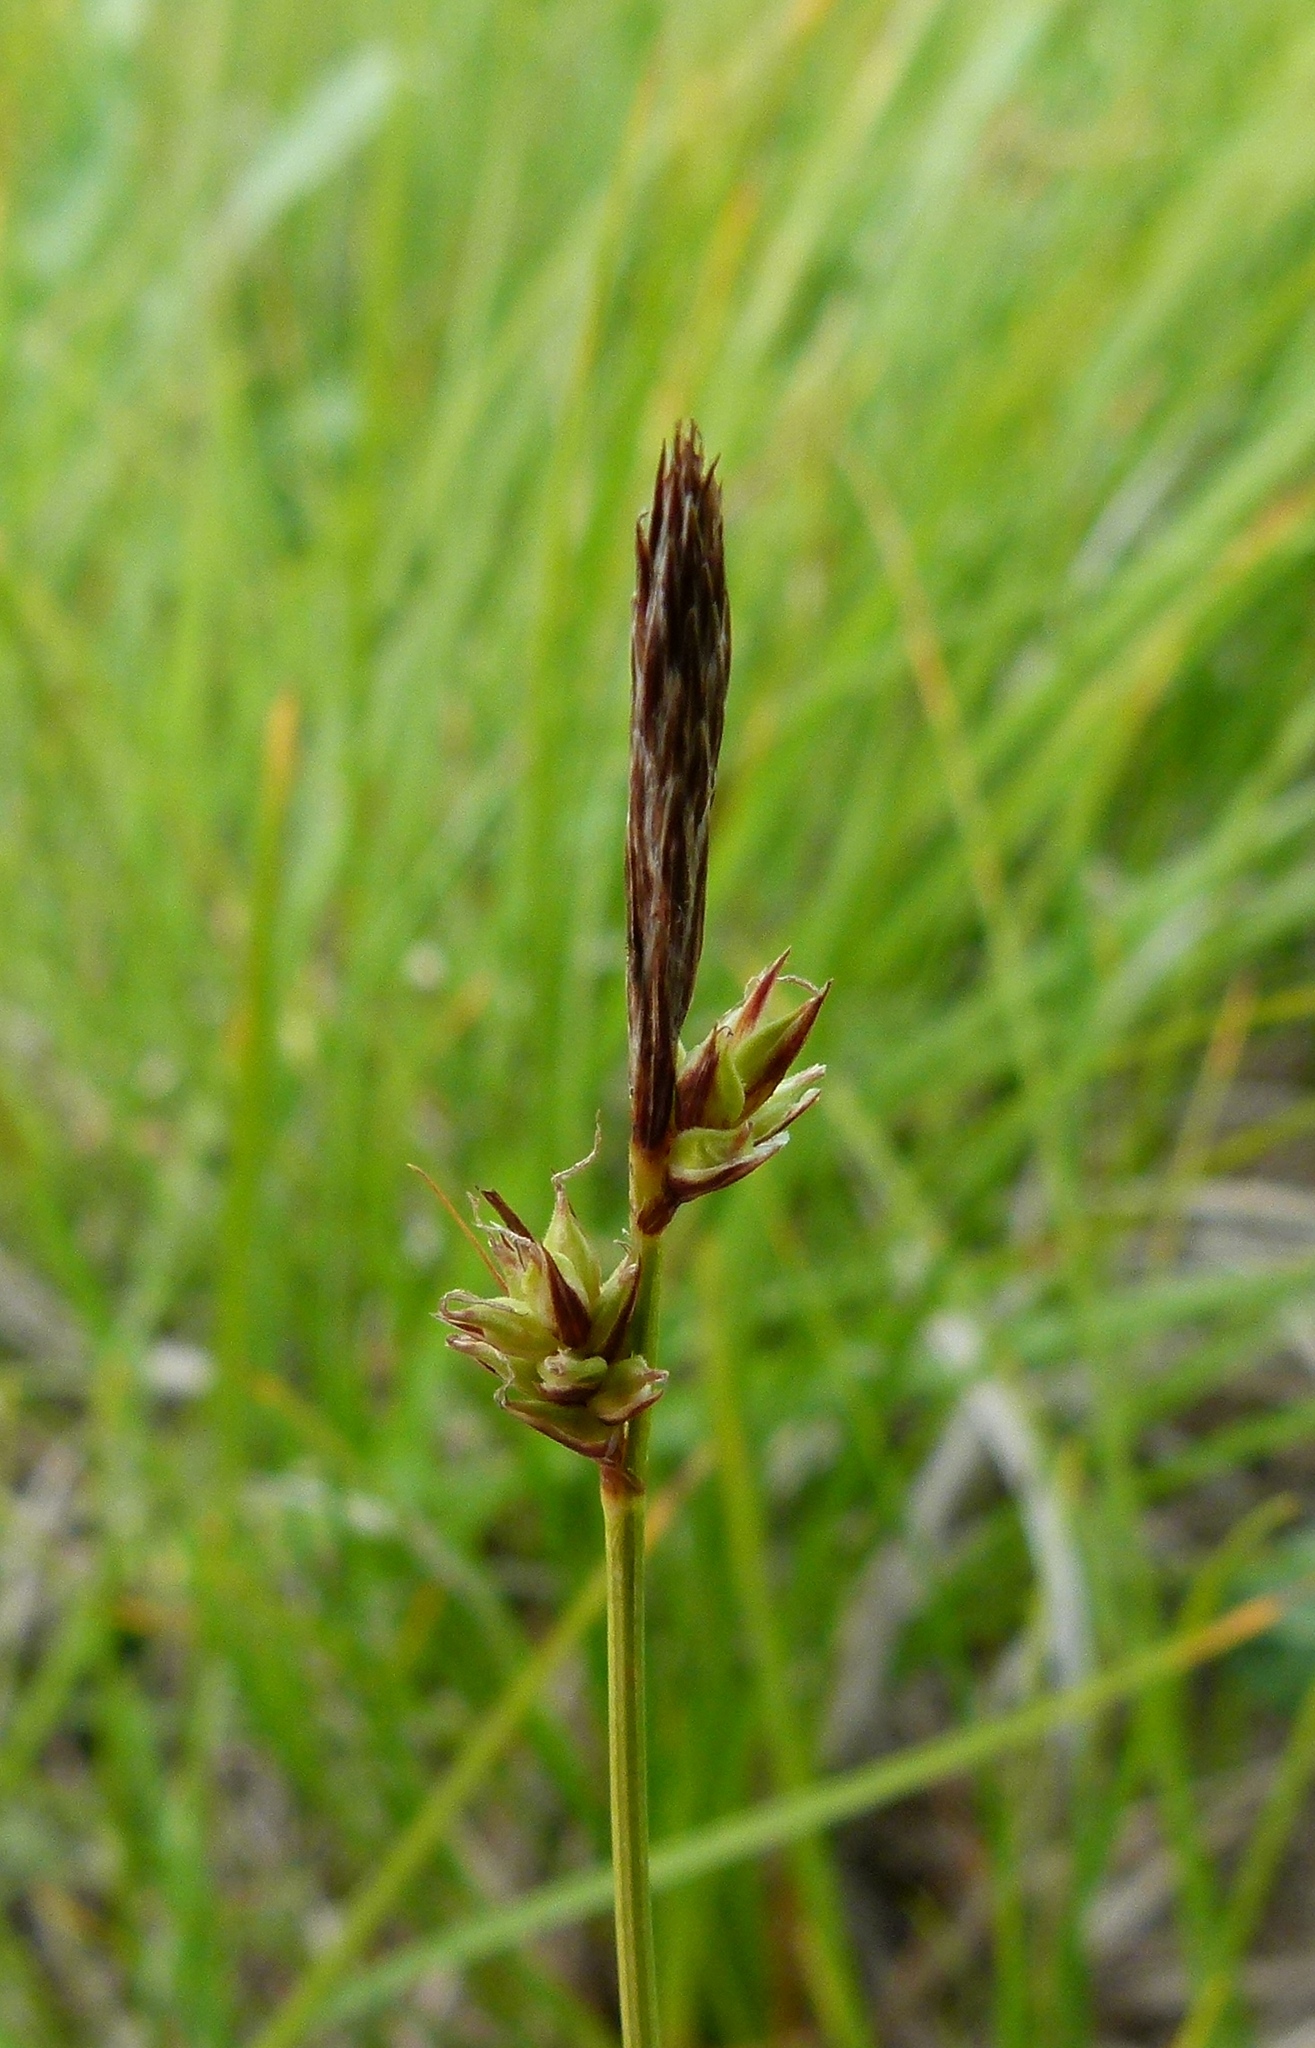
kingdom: Plantae
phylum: Tracheophyta
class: Liliopsida
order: Poales
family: Cyperaceae
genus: Carex
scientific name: Carex lucorum
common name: Blue ridge sedge
